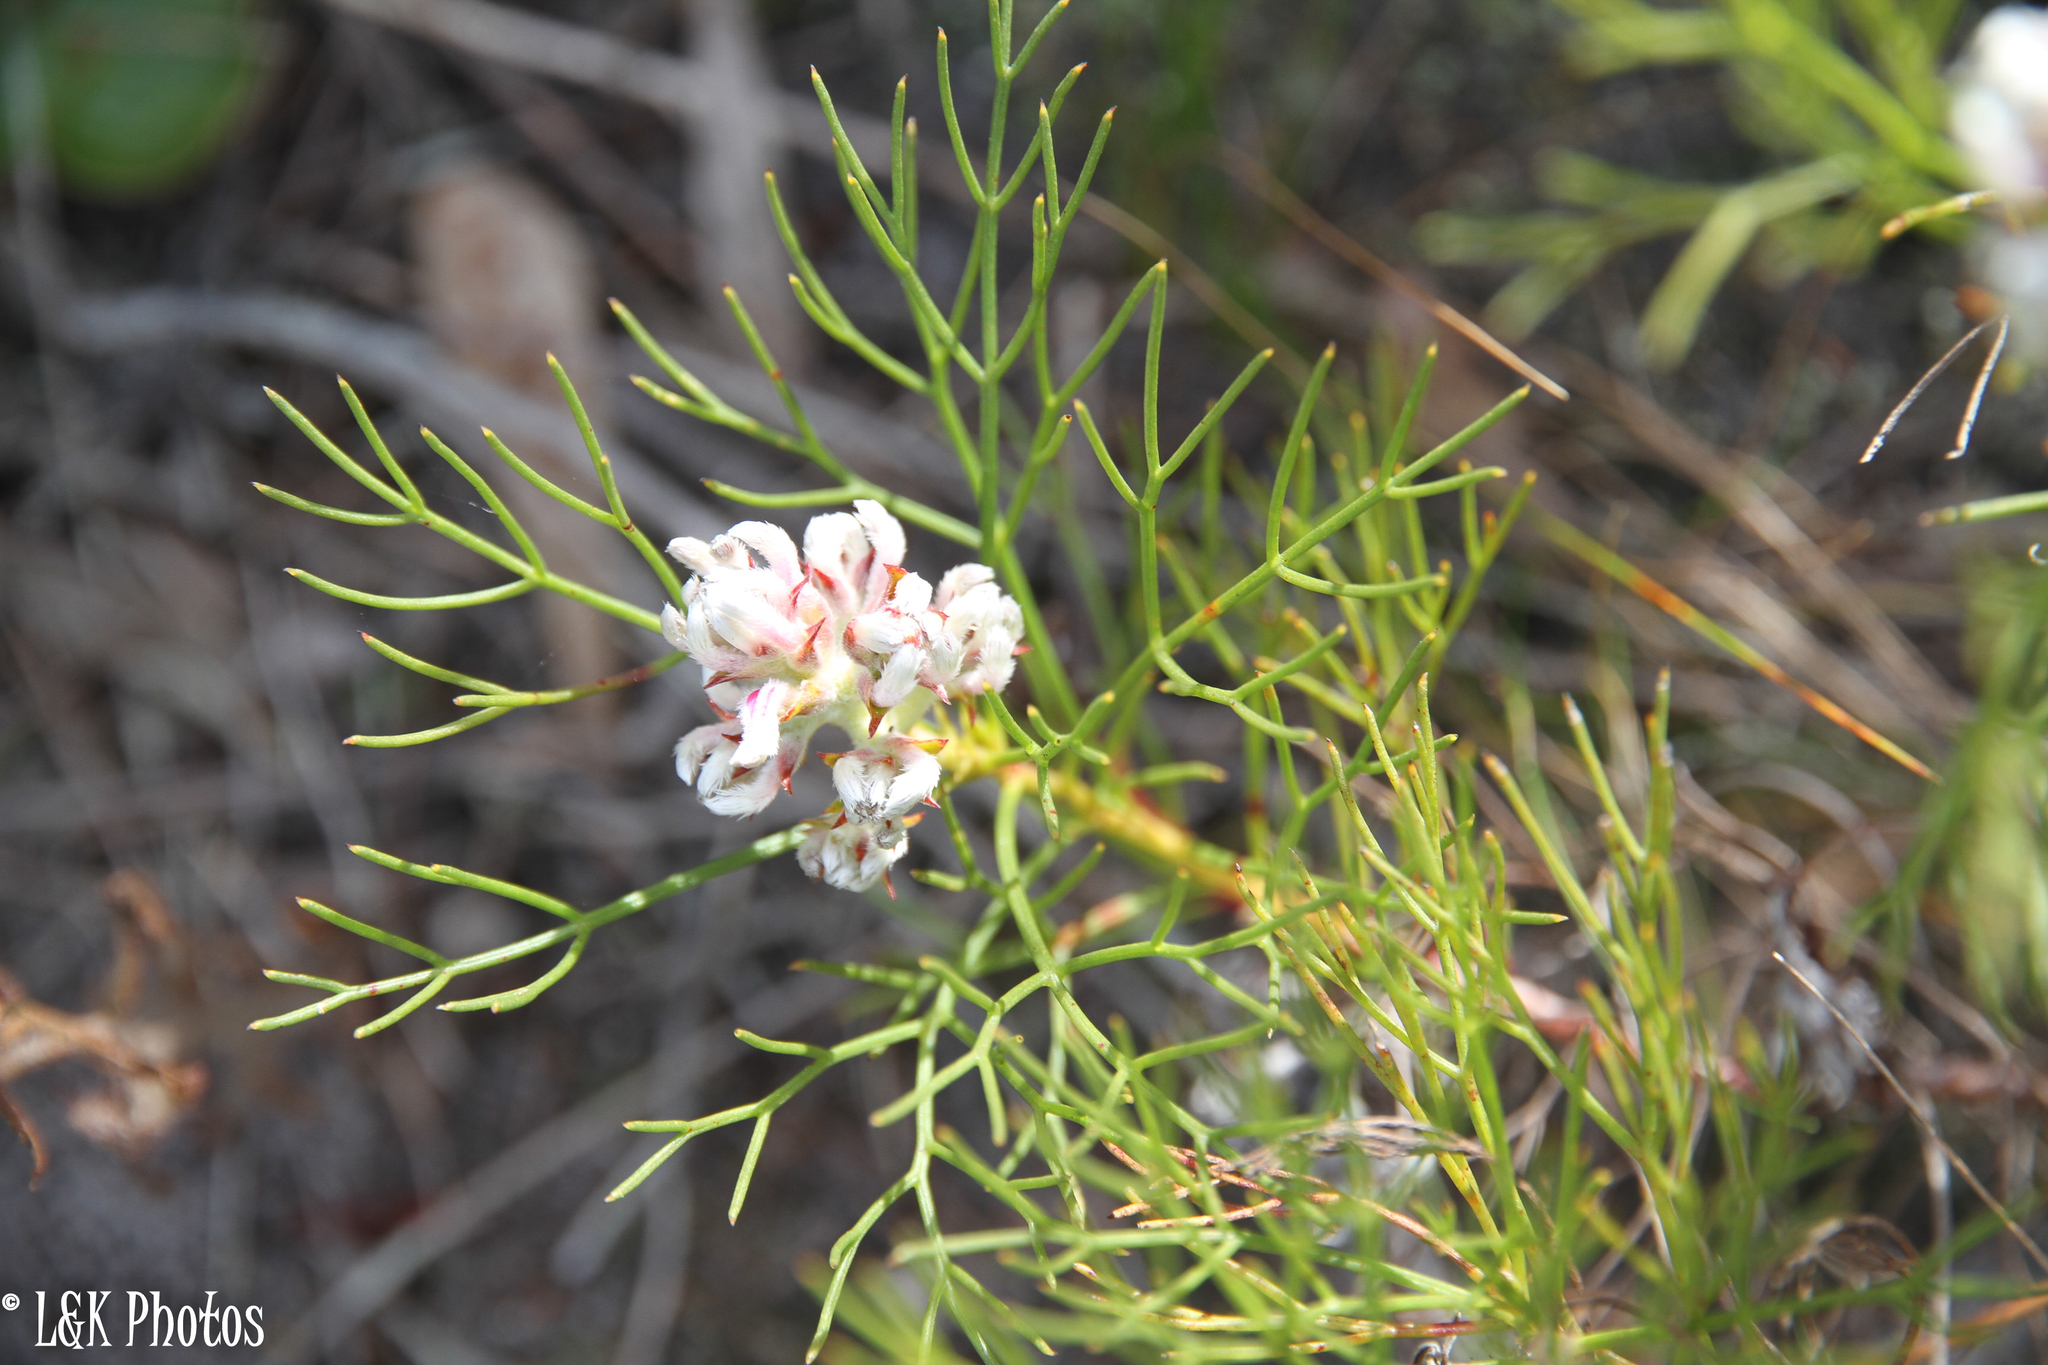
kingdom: Plantae
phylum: Tracheophyta
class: Magnoliopsida
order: Proteales
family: Proteaceae
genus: Serruria
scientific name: Serruria rubricaulis
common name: Red-stem spiderhead
